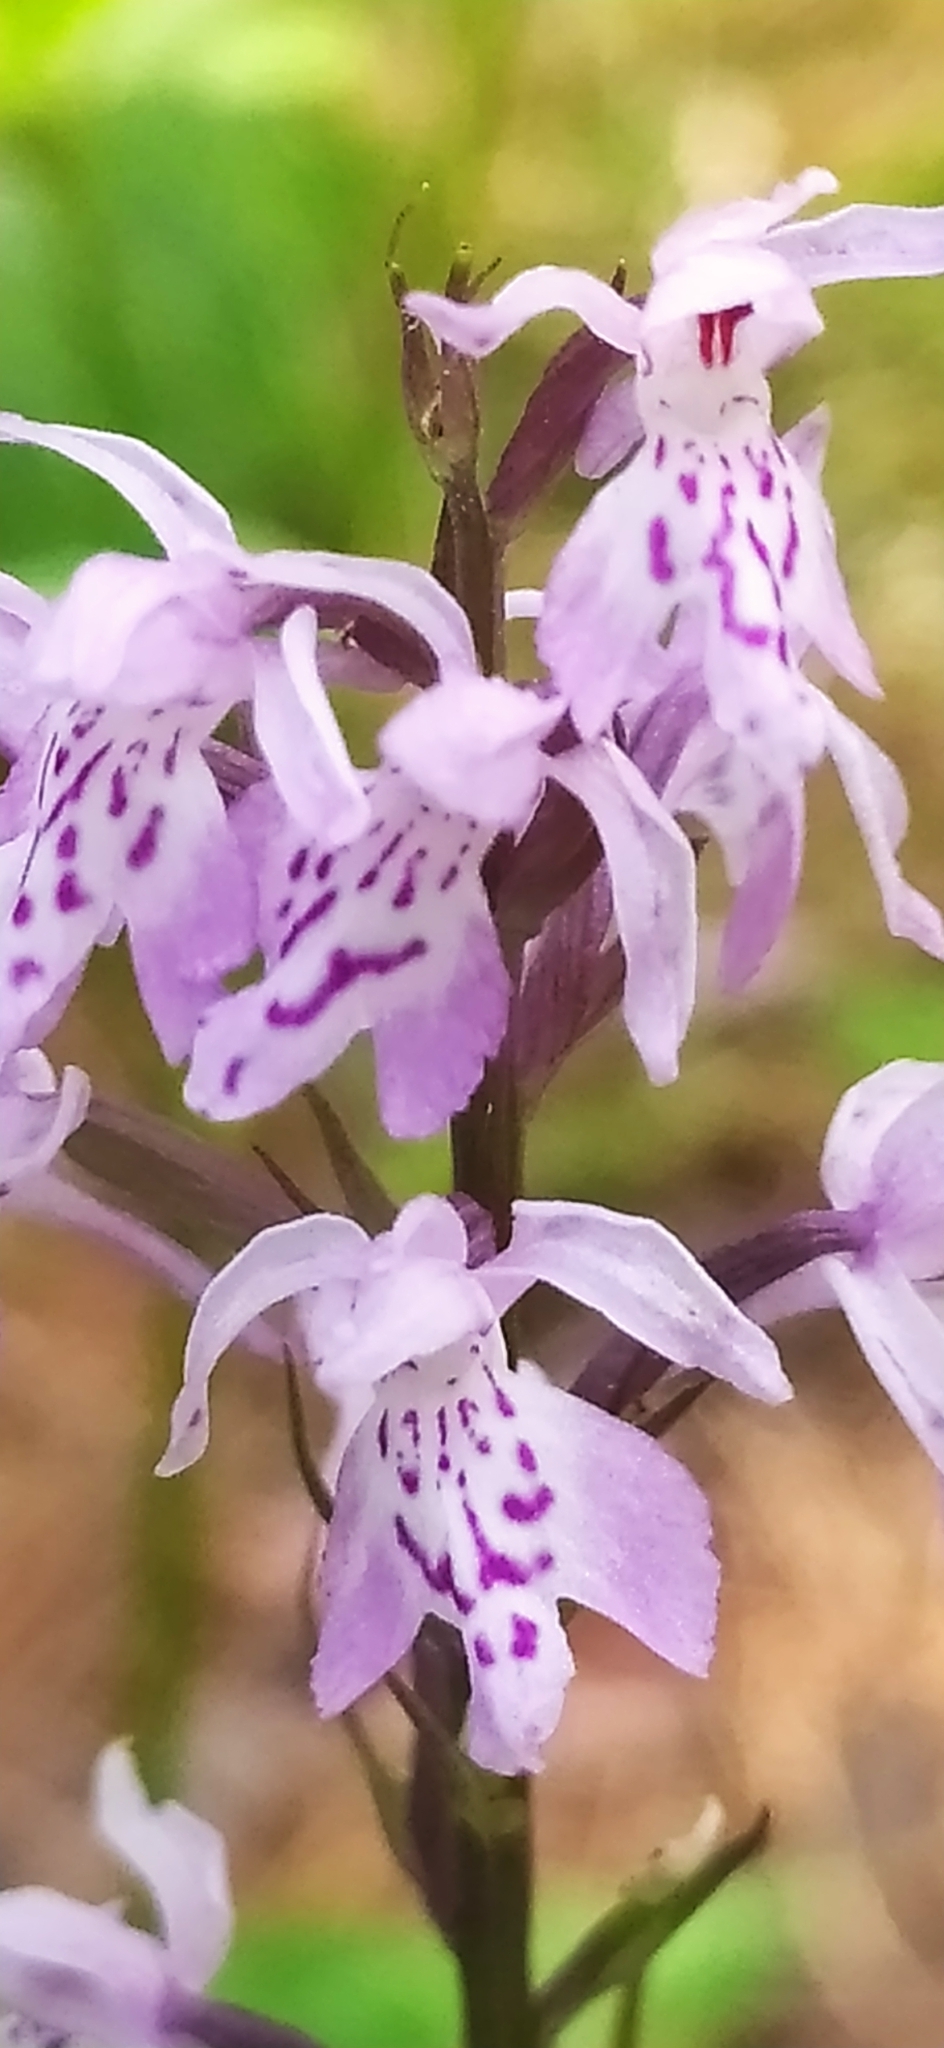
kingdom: Plantae
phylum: Tracheophyta
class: Liliopsida
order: Asparagales
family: Orchidaceae
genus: Dactylorhiza
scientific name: Dactylorhiza maculata
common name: Heath spotted-orchid
